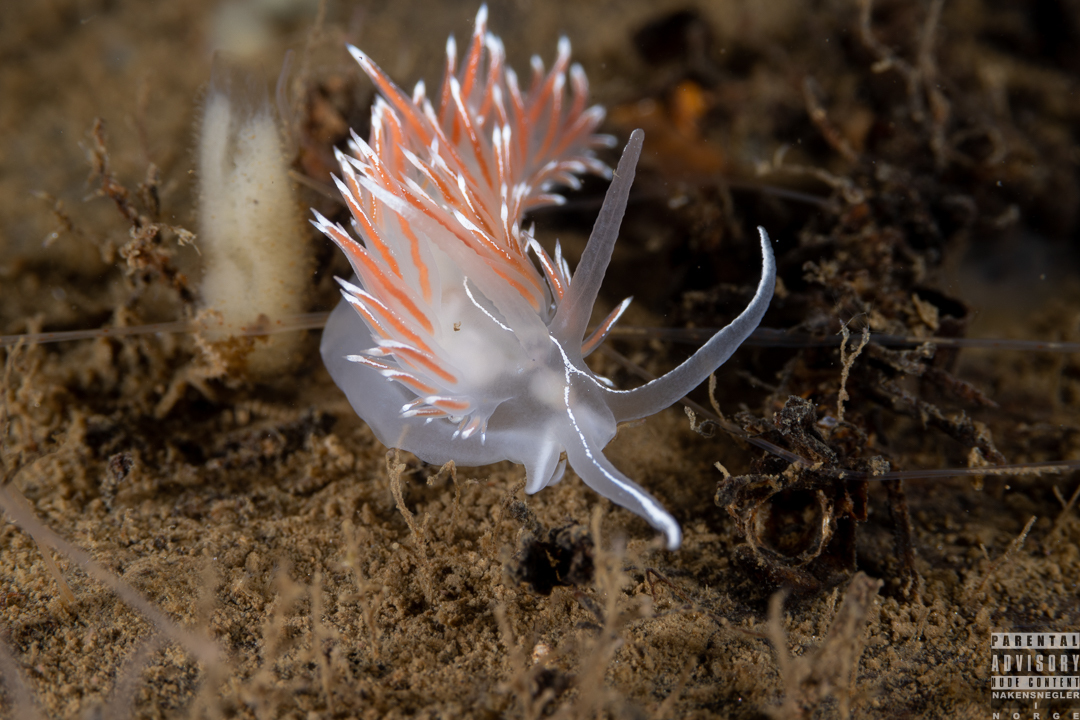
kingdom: Animalia
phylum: Mollusca
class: Gastropoda
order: Nudibranchia
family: Coryphellidae
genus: Coryphella
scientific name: Coryphella lineata
